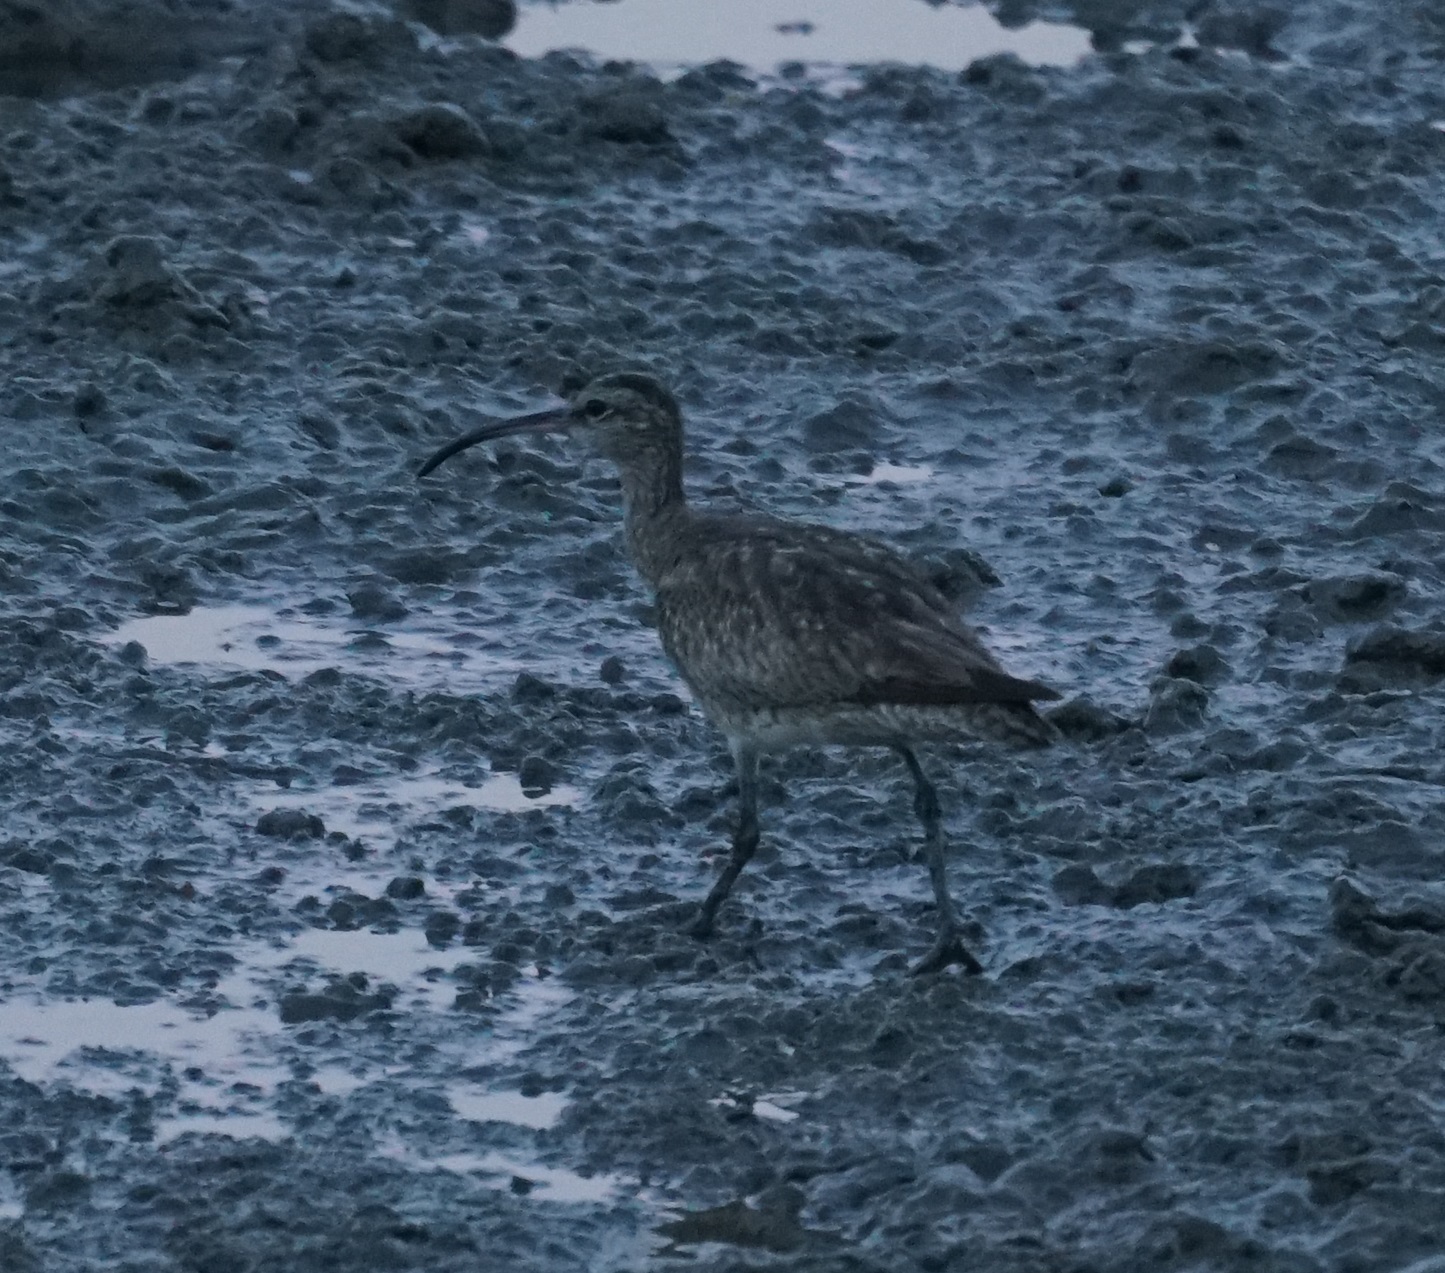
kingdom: Animalia
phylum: Chordata
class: Aves
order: Charadriiformes
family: Scolopacidae
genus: Numenius
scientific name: Numenius phaeopus
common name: Whimbrel
